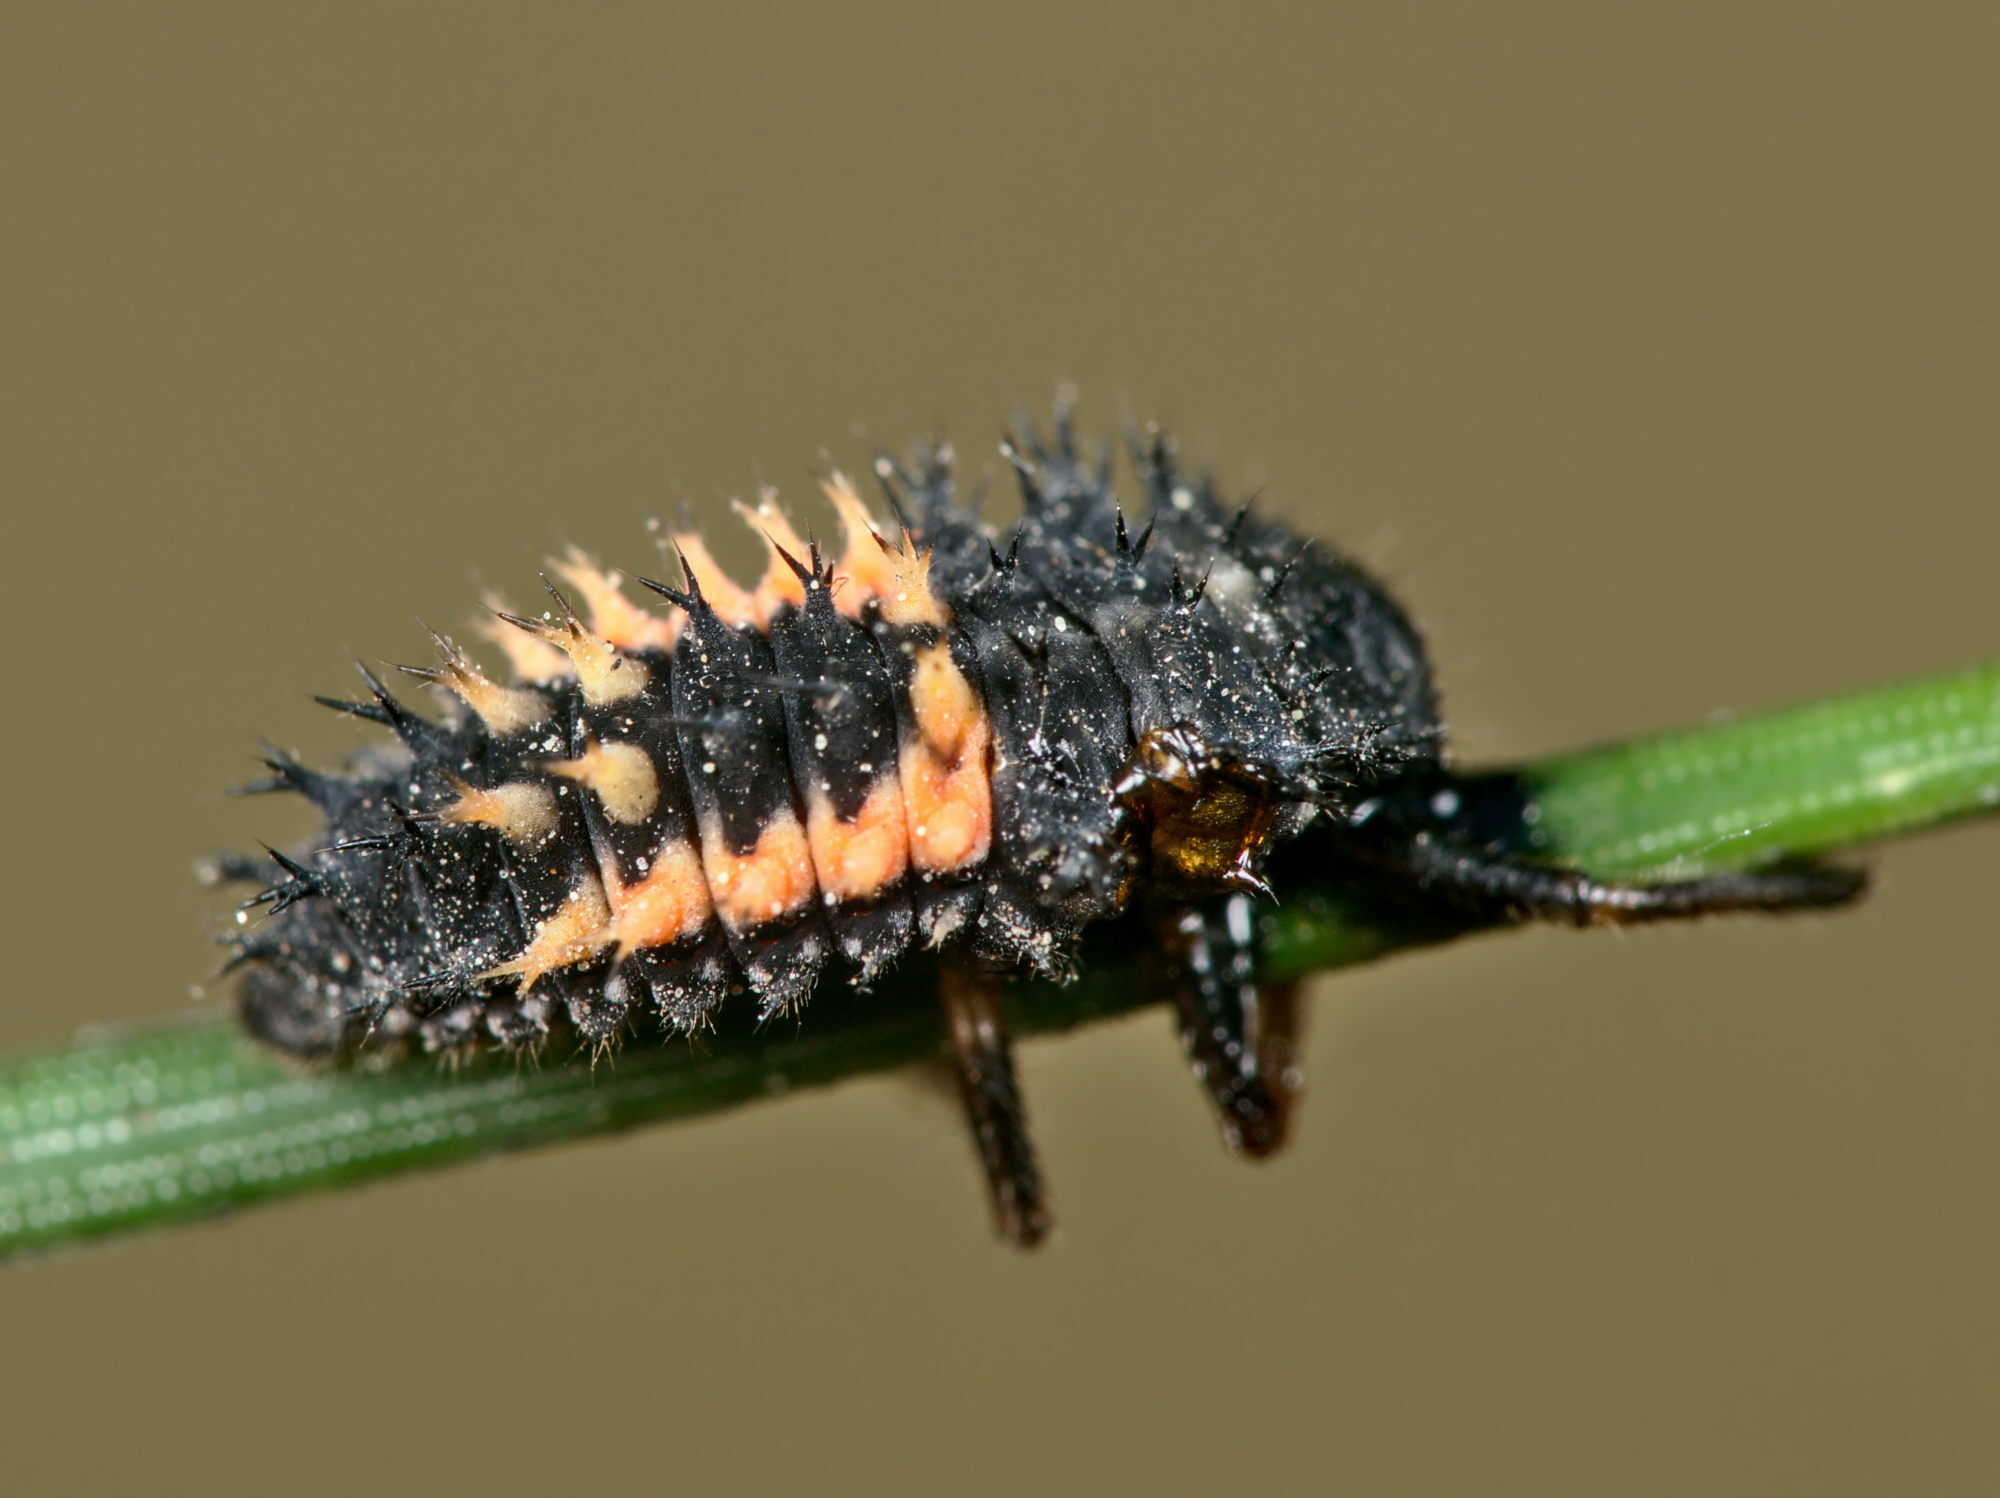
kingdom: Animalia
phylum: Arthropoda
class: Insecta
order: Coleoptera
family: Coccinellidae
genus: Harmonia
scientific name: Harmonia axyridis
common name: Harlequin ladybird
